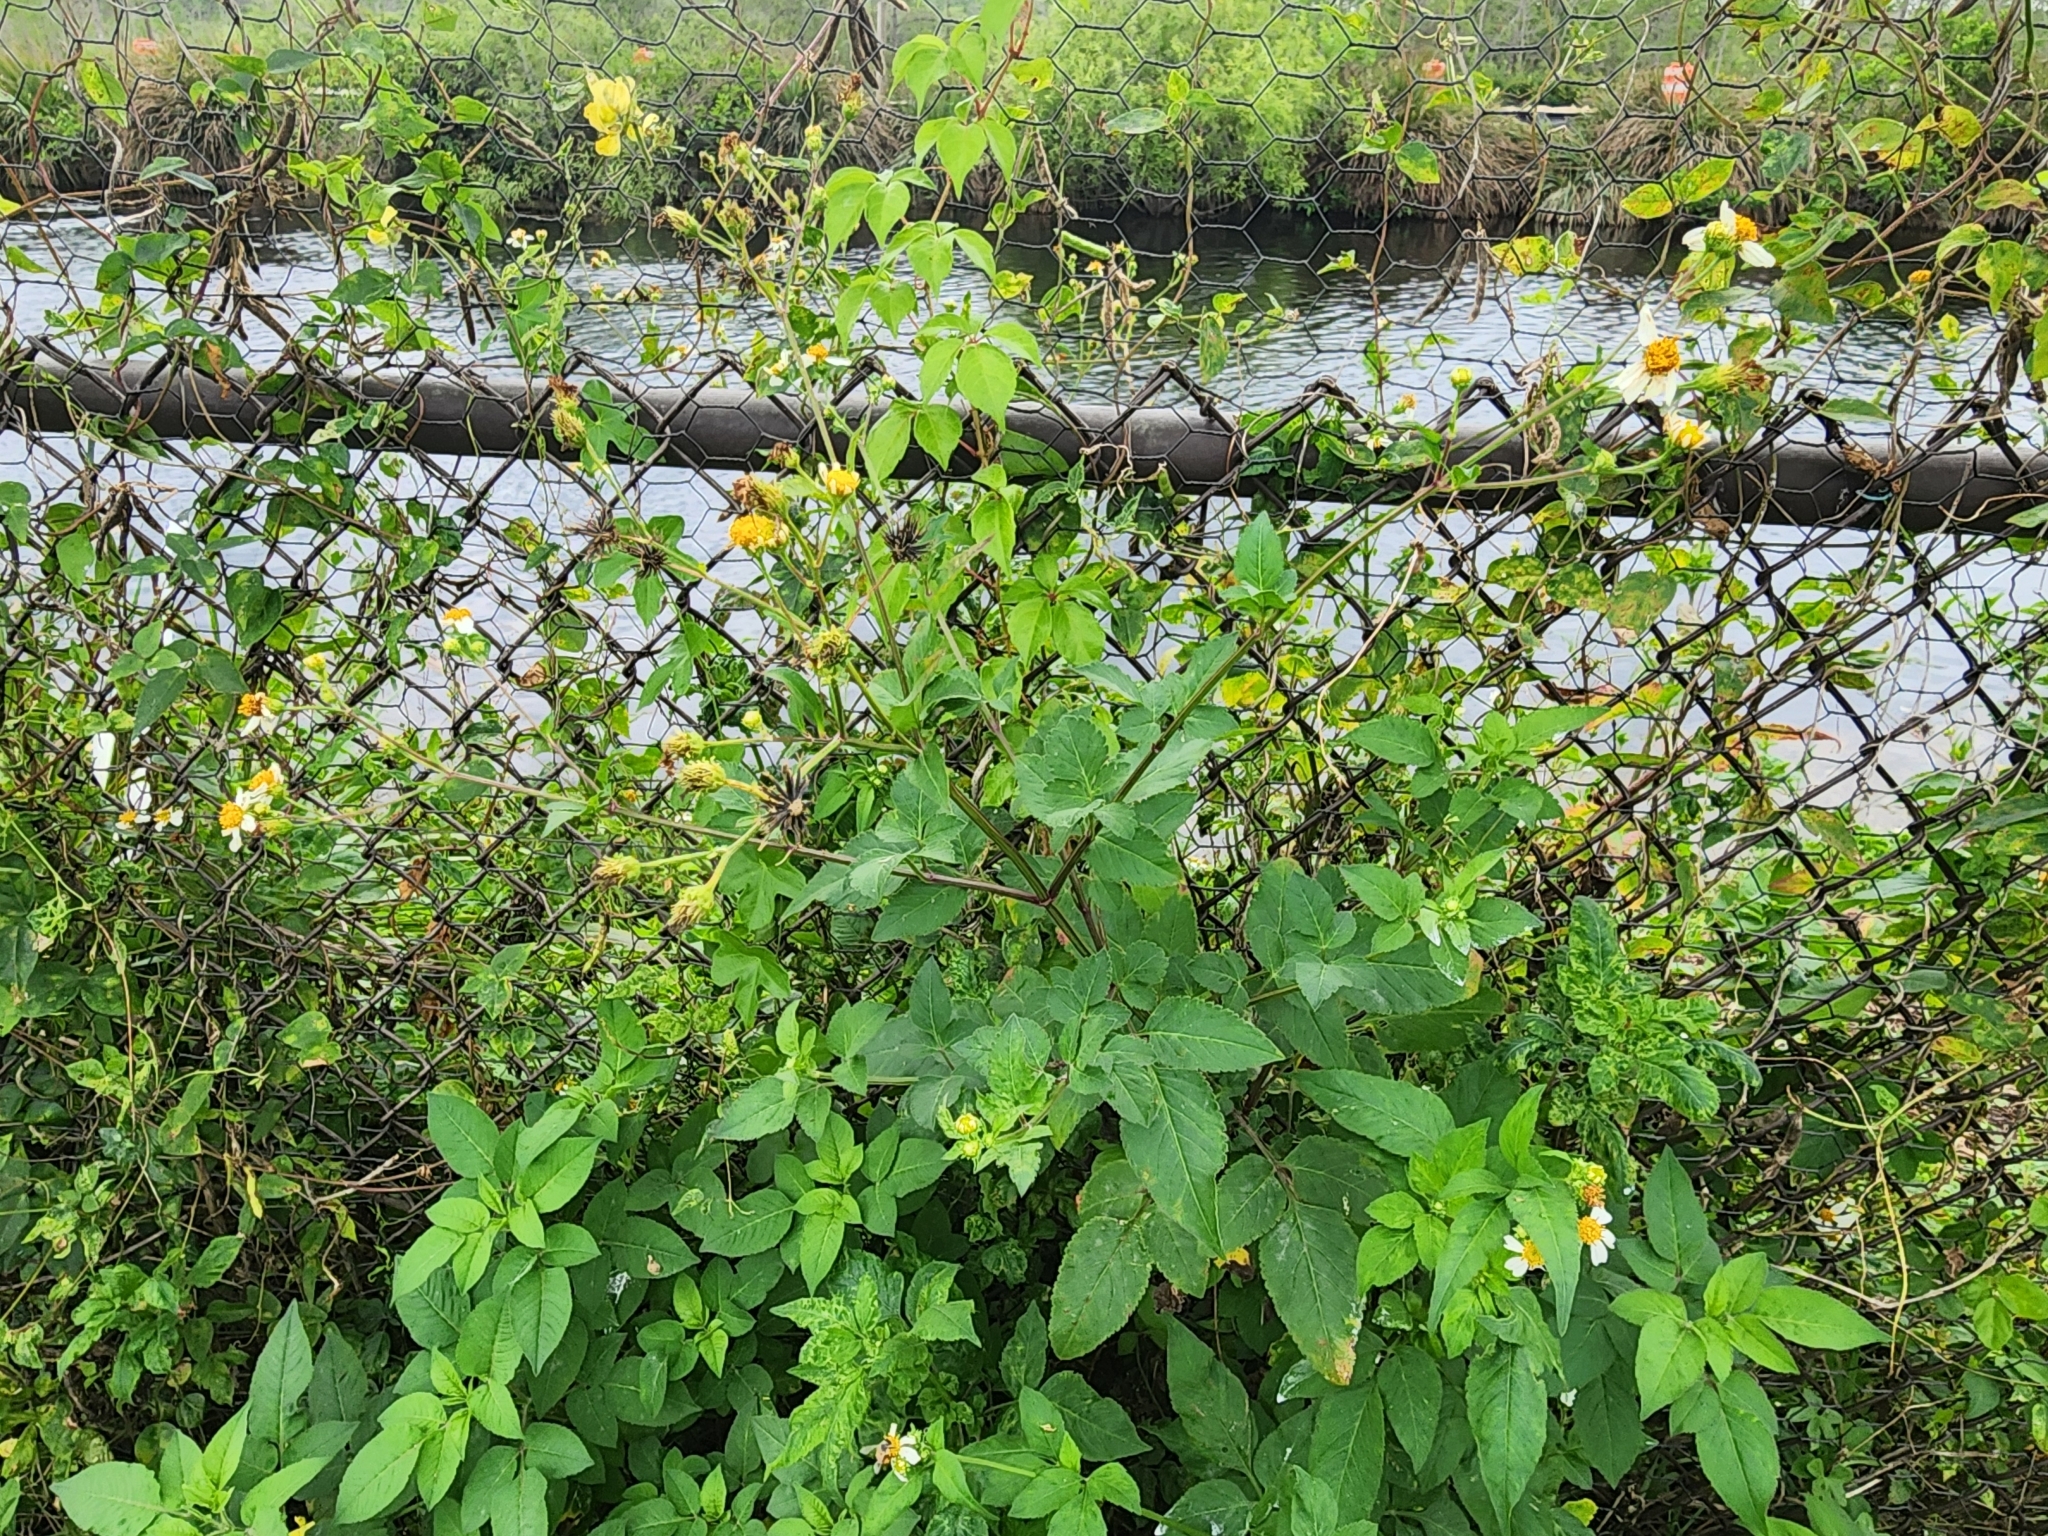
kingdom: Plantae
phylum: Tracheophyta
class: Magnoliopsida
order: Asterales
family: Asteraceae
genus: Bidens
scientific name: Bidens alba
